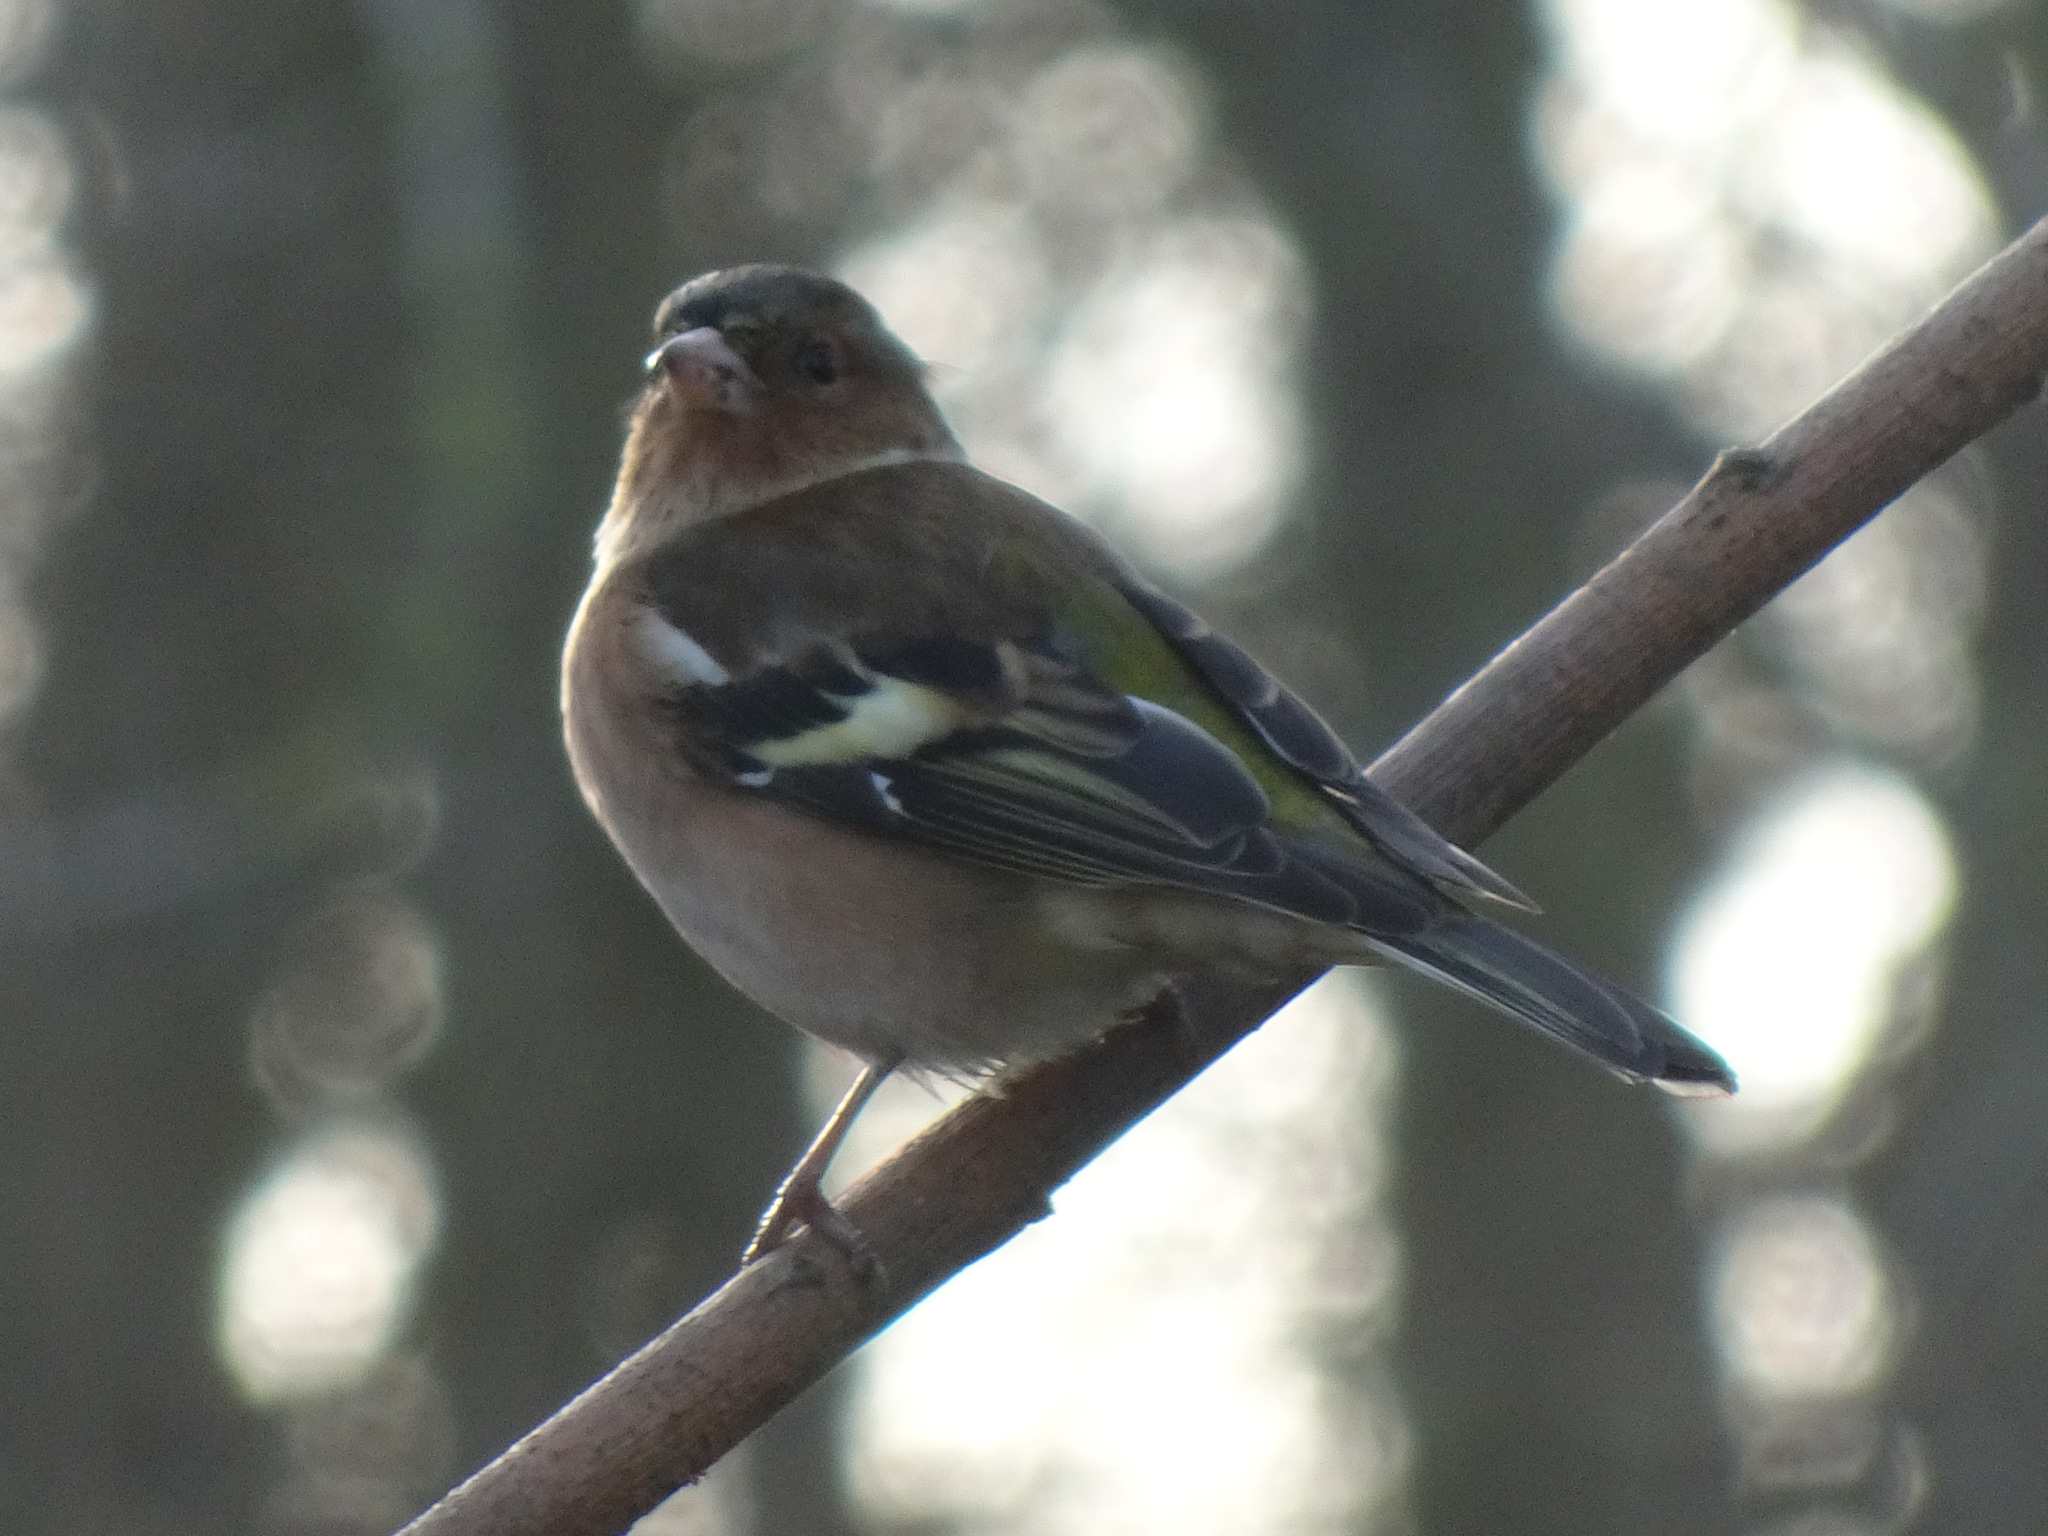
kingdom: Animalia
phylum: Chordata
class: Aves
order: Passeriformes
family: Fringillidae
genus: Fringilla
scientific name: Fringilla coelebs
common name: Common chaffinch
